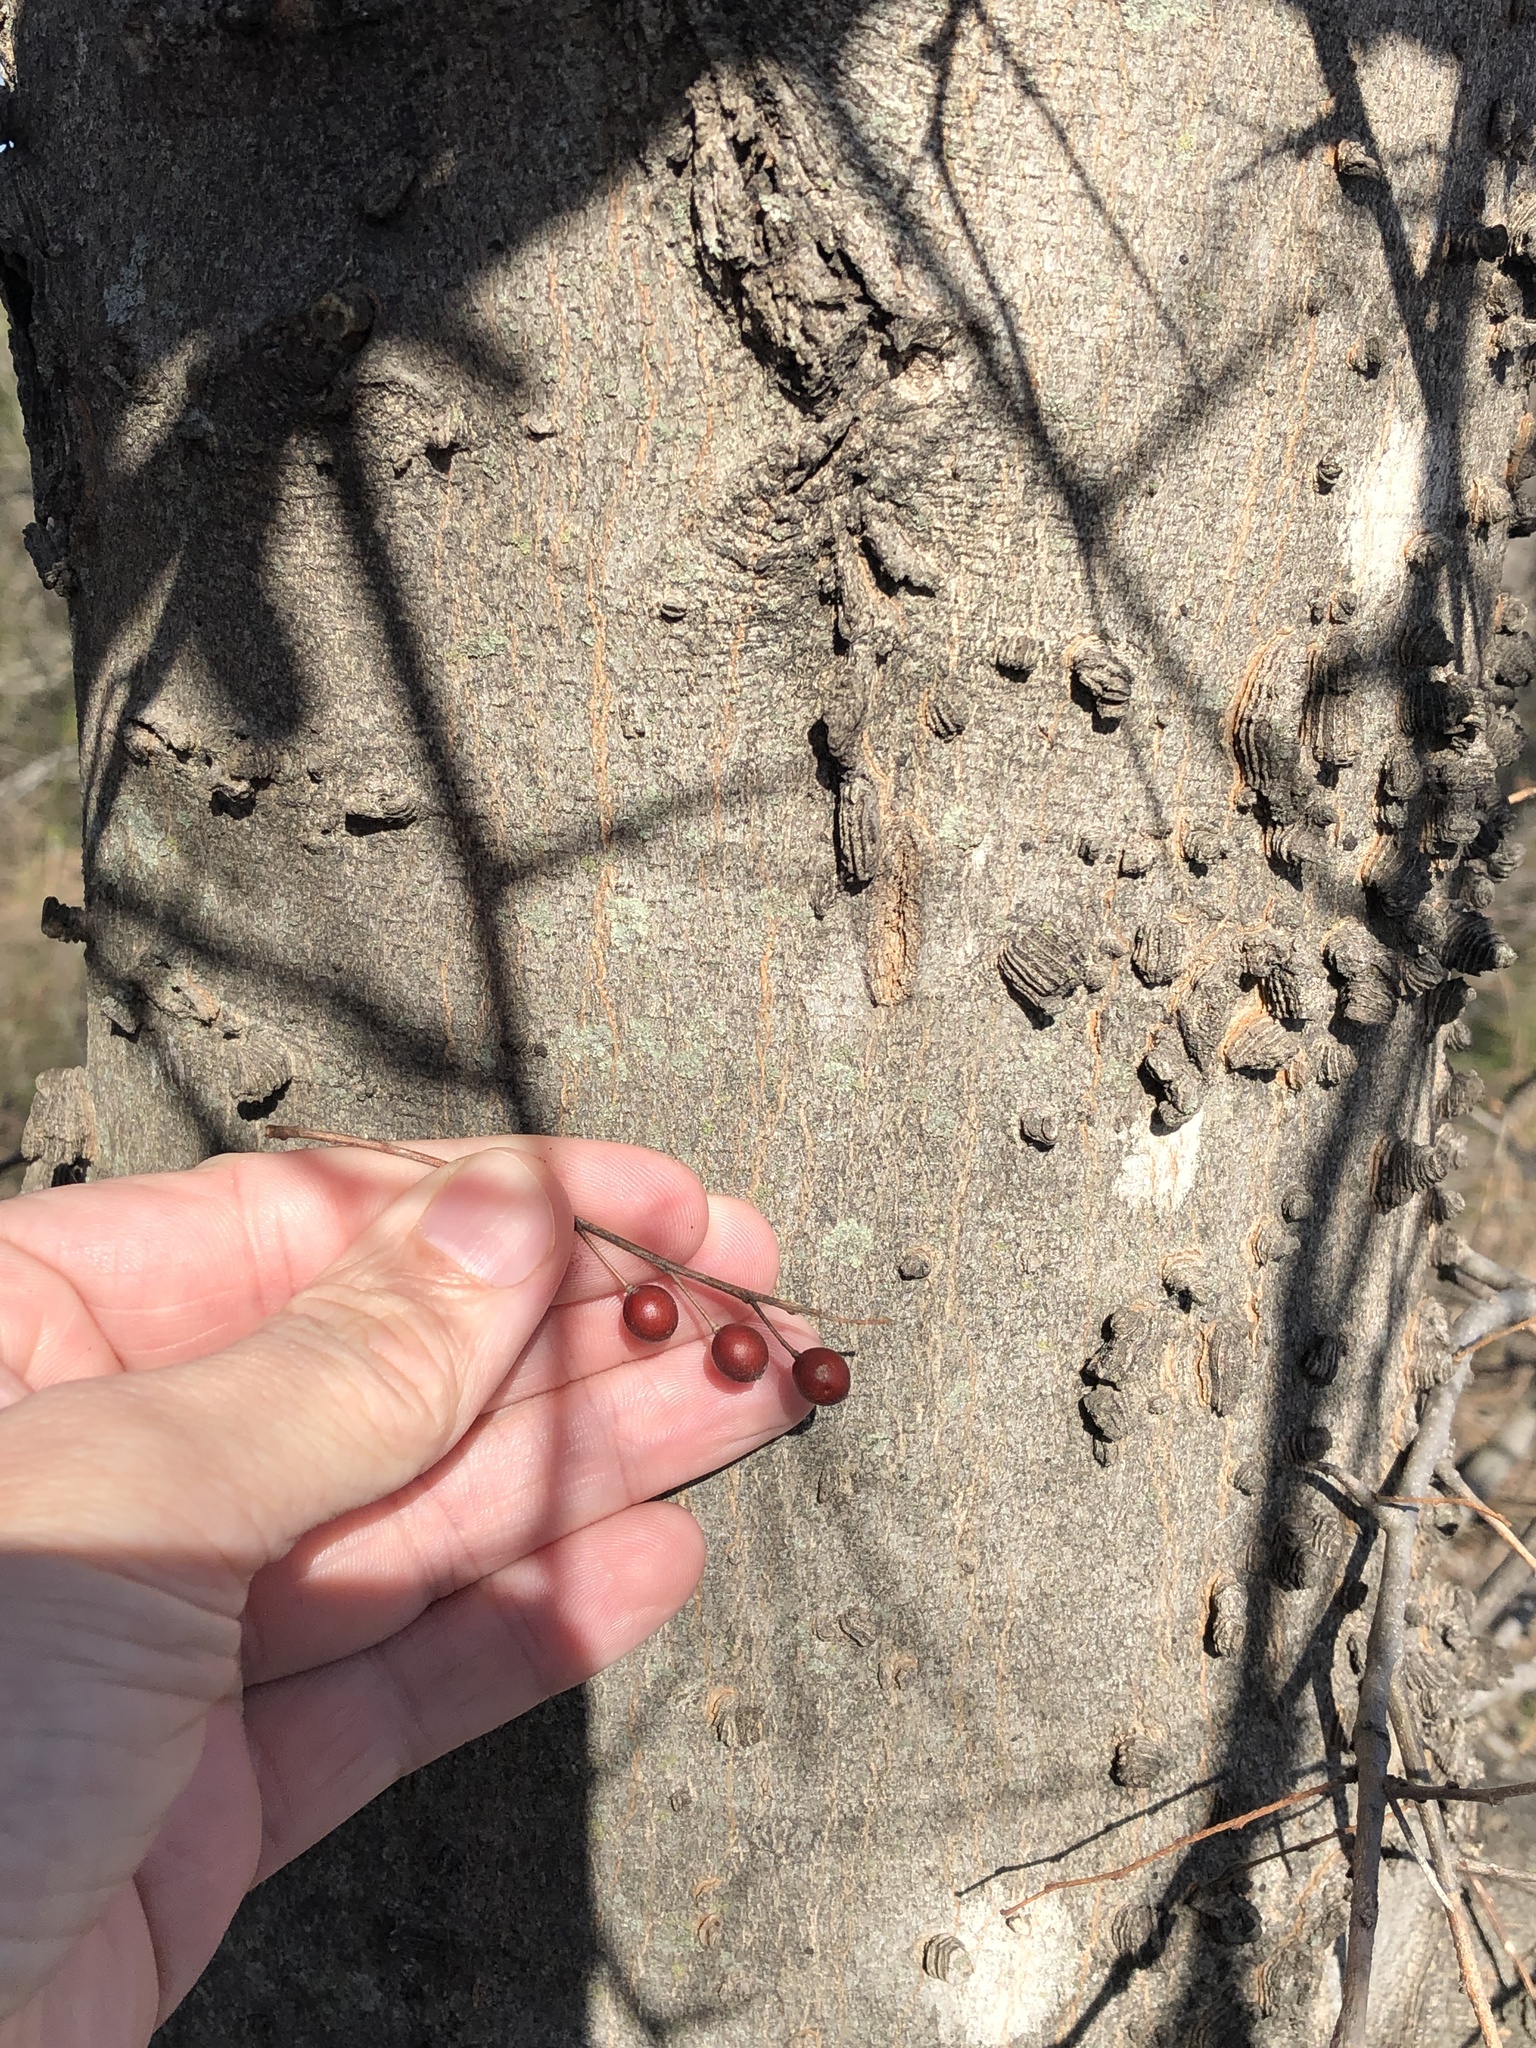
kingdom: Plantae
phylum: Tracheophyta
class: Magnoliopsida
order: Rosales
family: Cannabaceae
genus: Celtis
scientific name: Celtis laevigata
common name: Sugarberry
